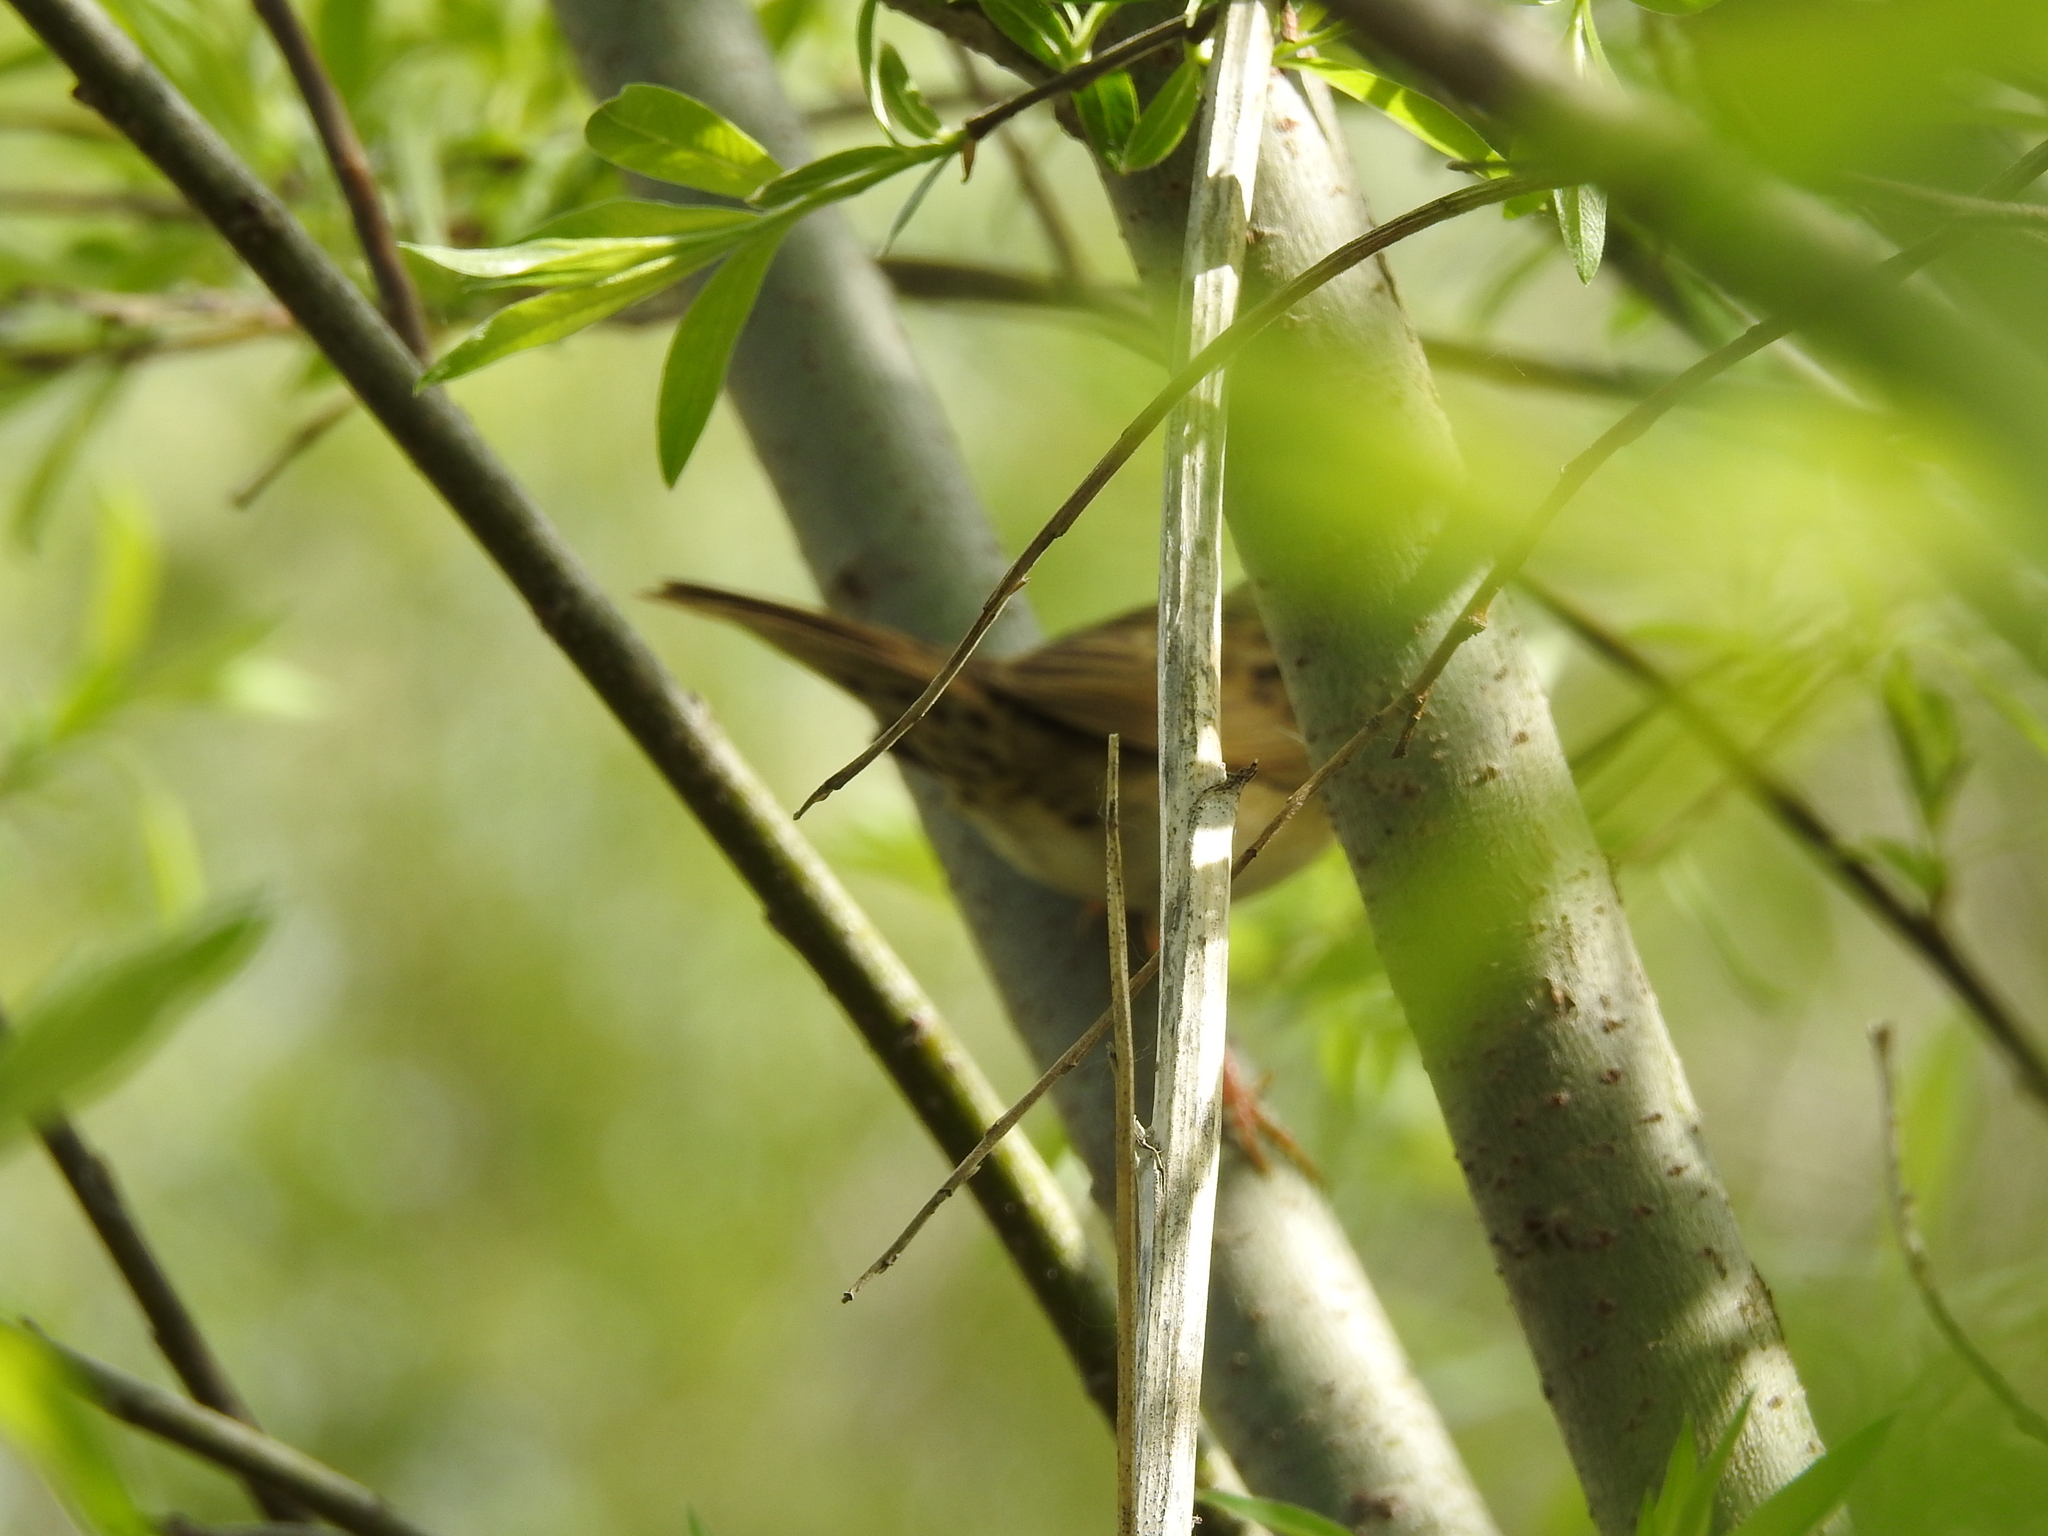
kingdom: Animalia
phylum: Chordata
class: Aves
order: Passeriformes
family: Locustellidae
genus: Locustella
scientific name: Locustella naevia
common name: Common grasshopper warbler
